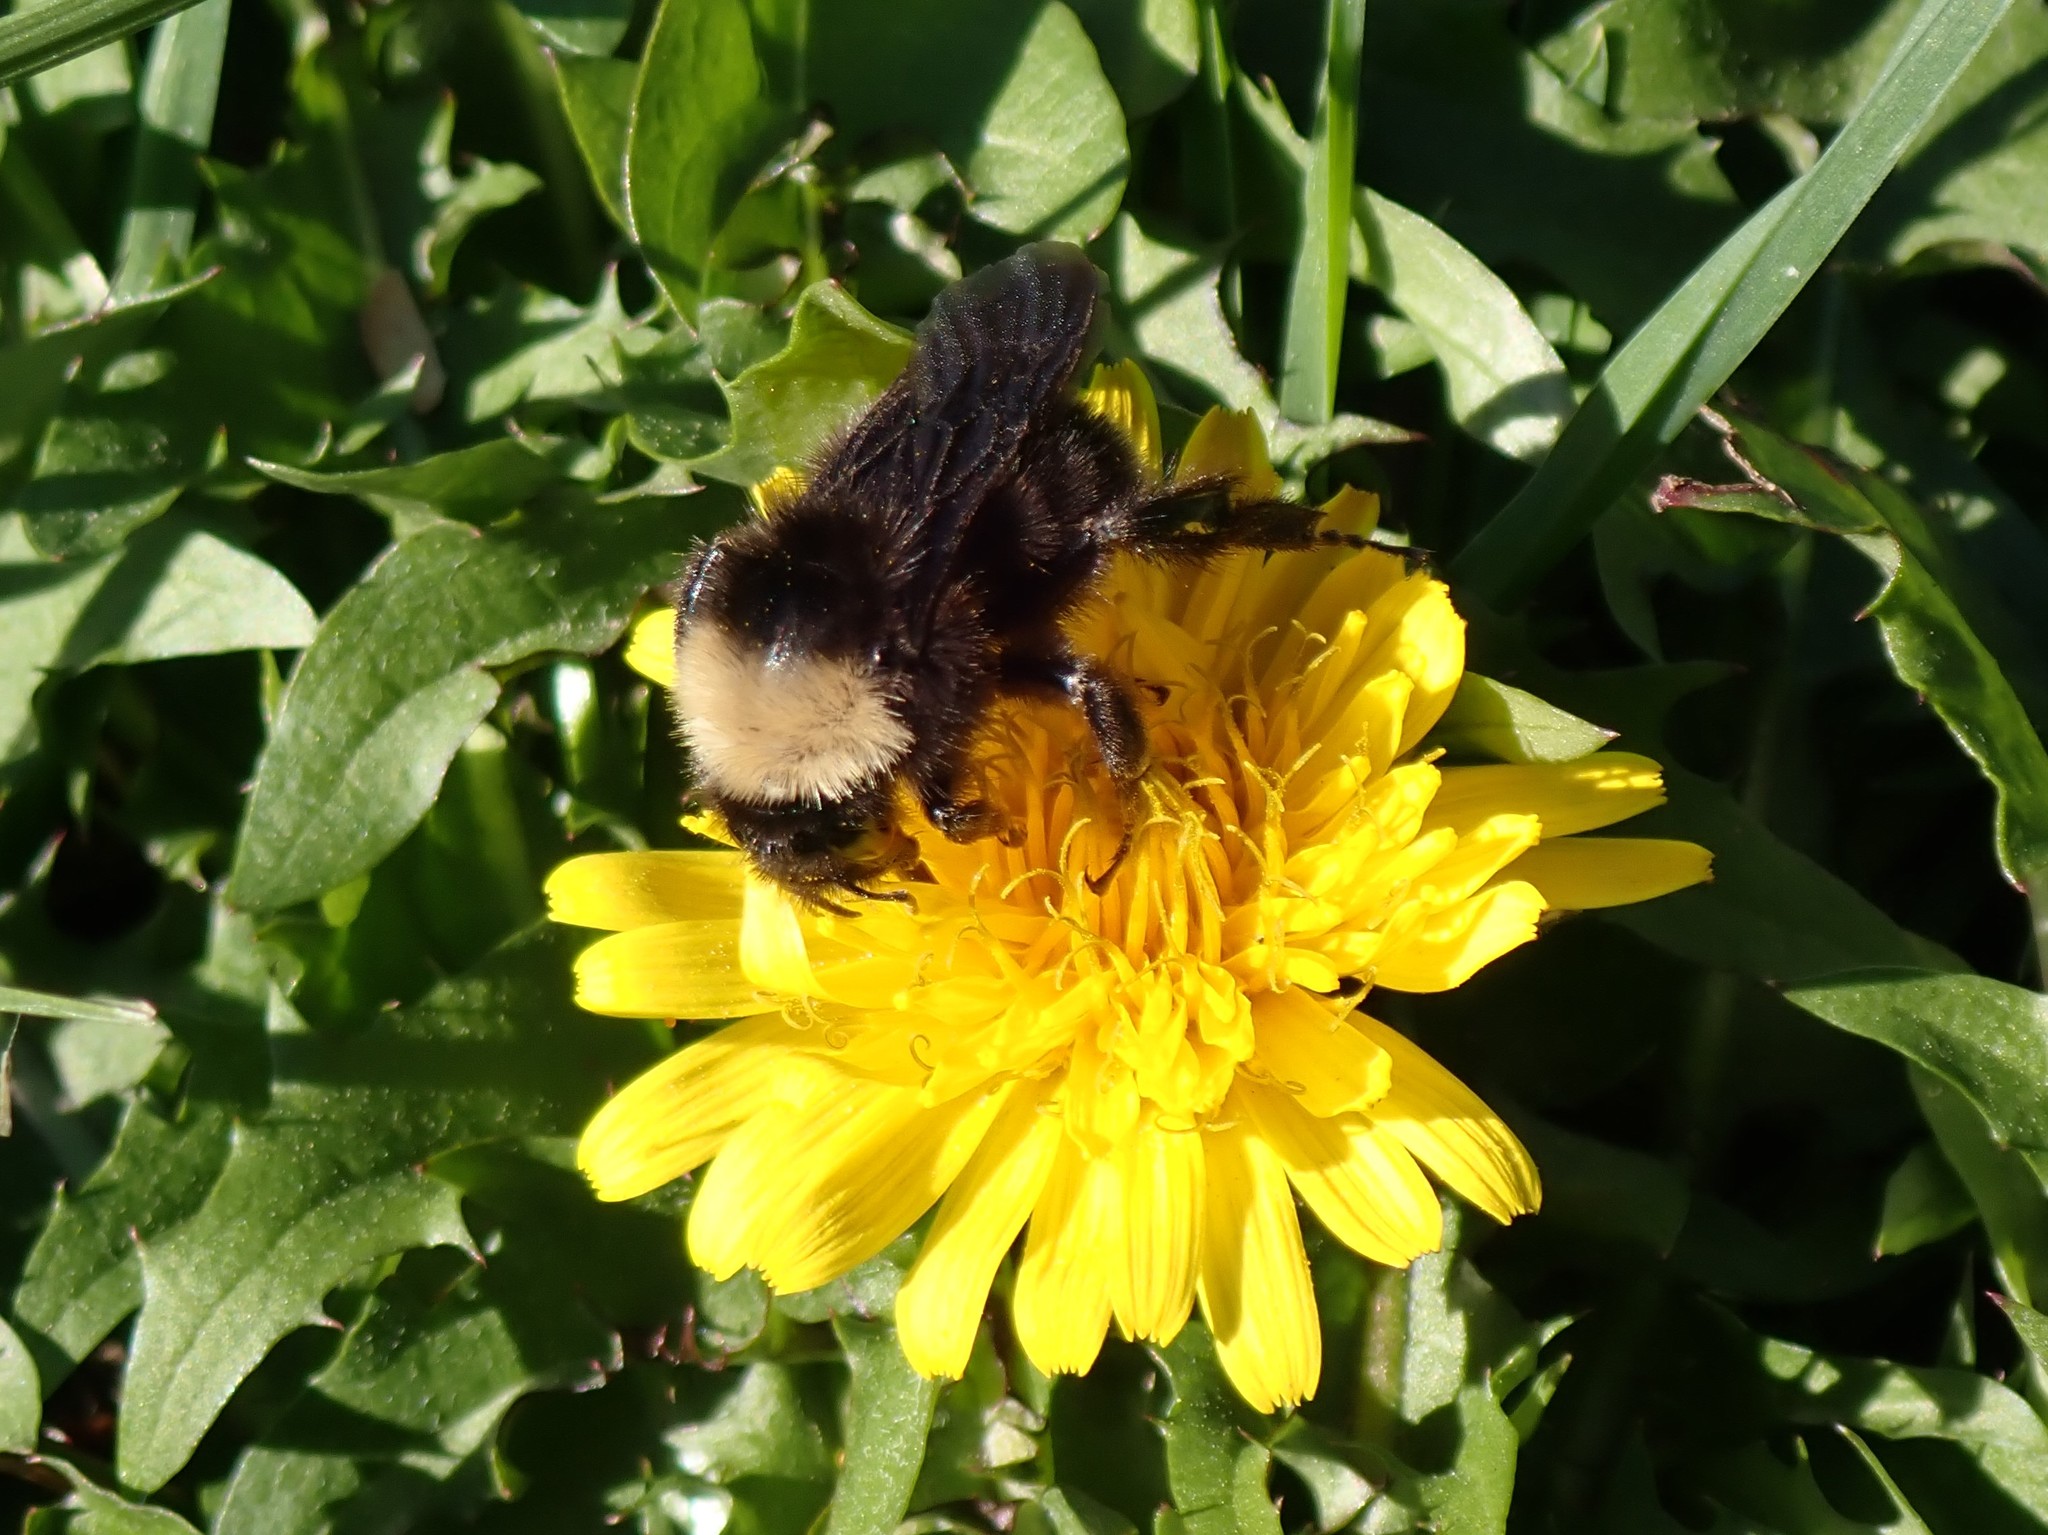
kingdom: Animalia
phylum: Arthropoda
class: Insecta
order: Hymenoptera
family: Apidae
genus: Bombus
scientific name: Bombus californicus
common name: California bumble bee
